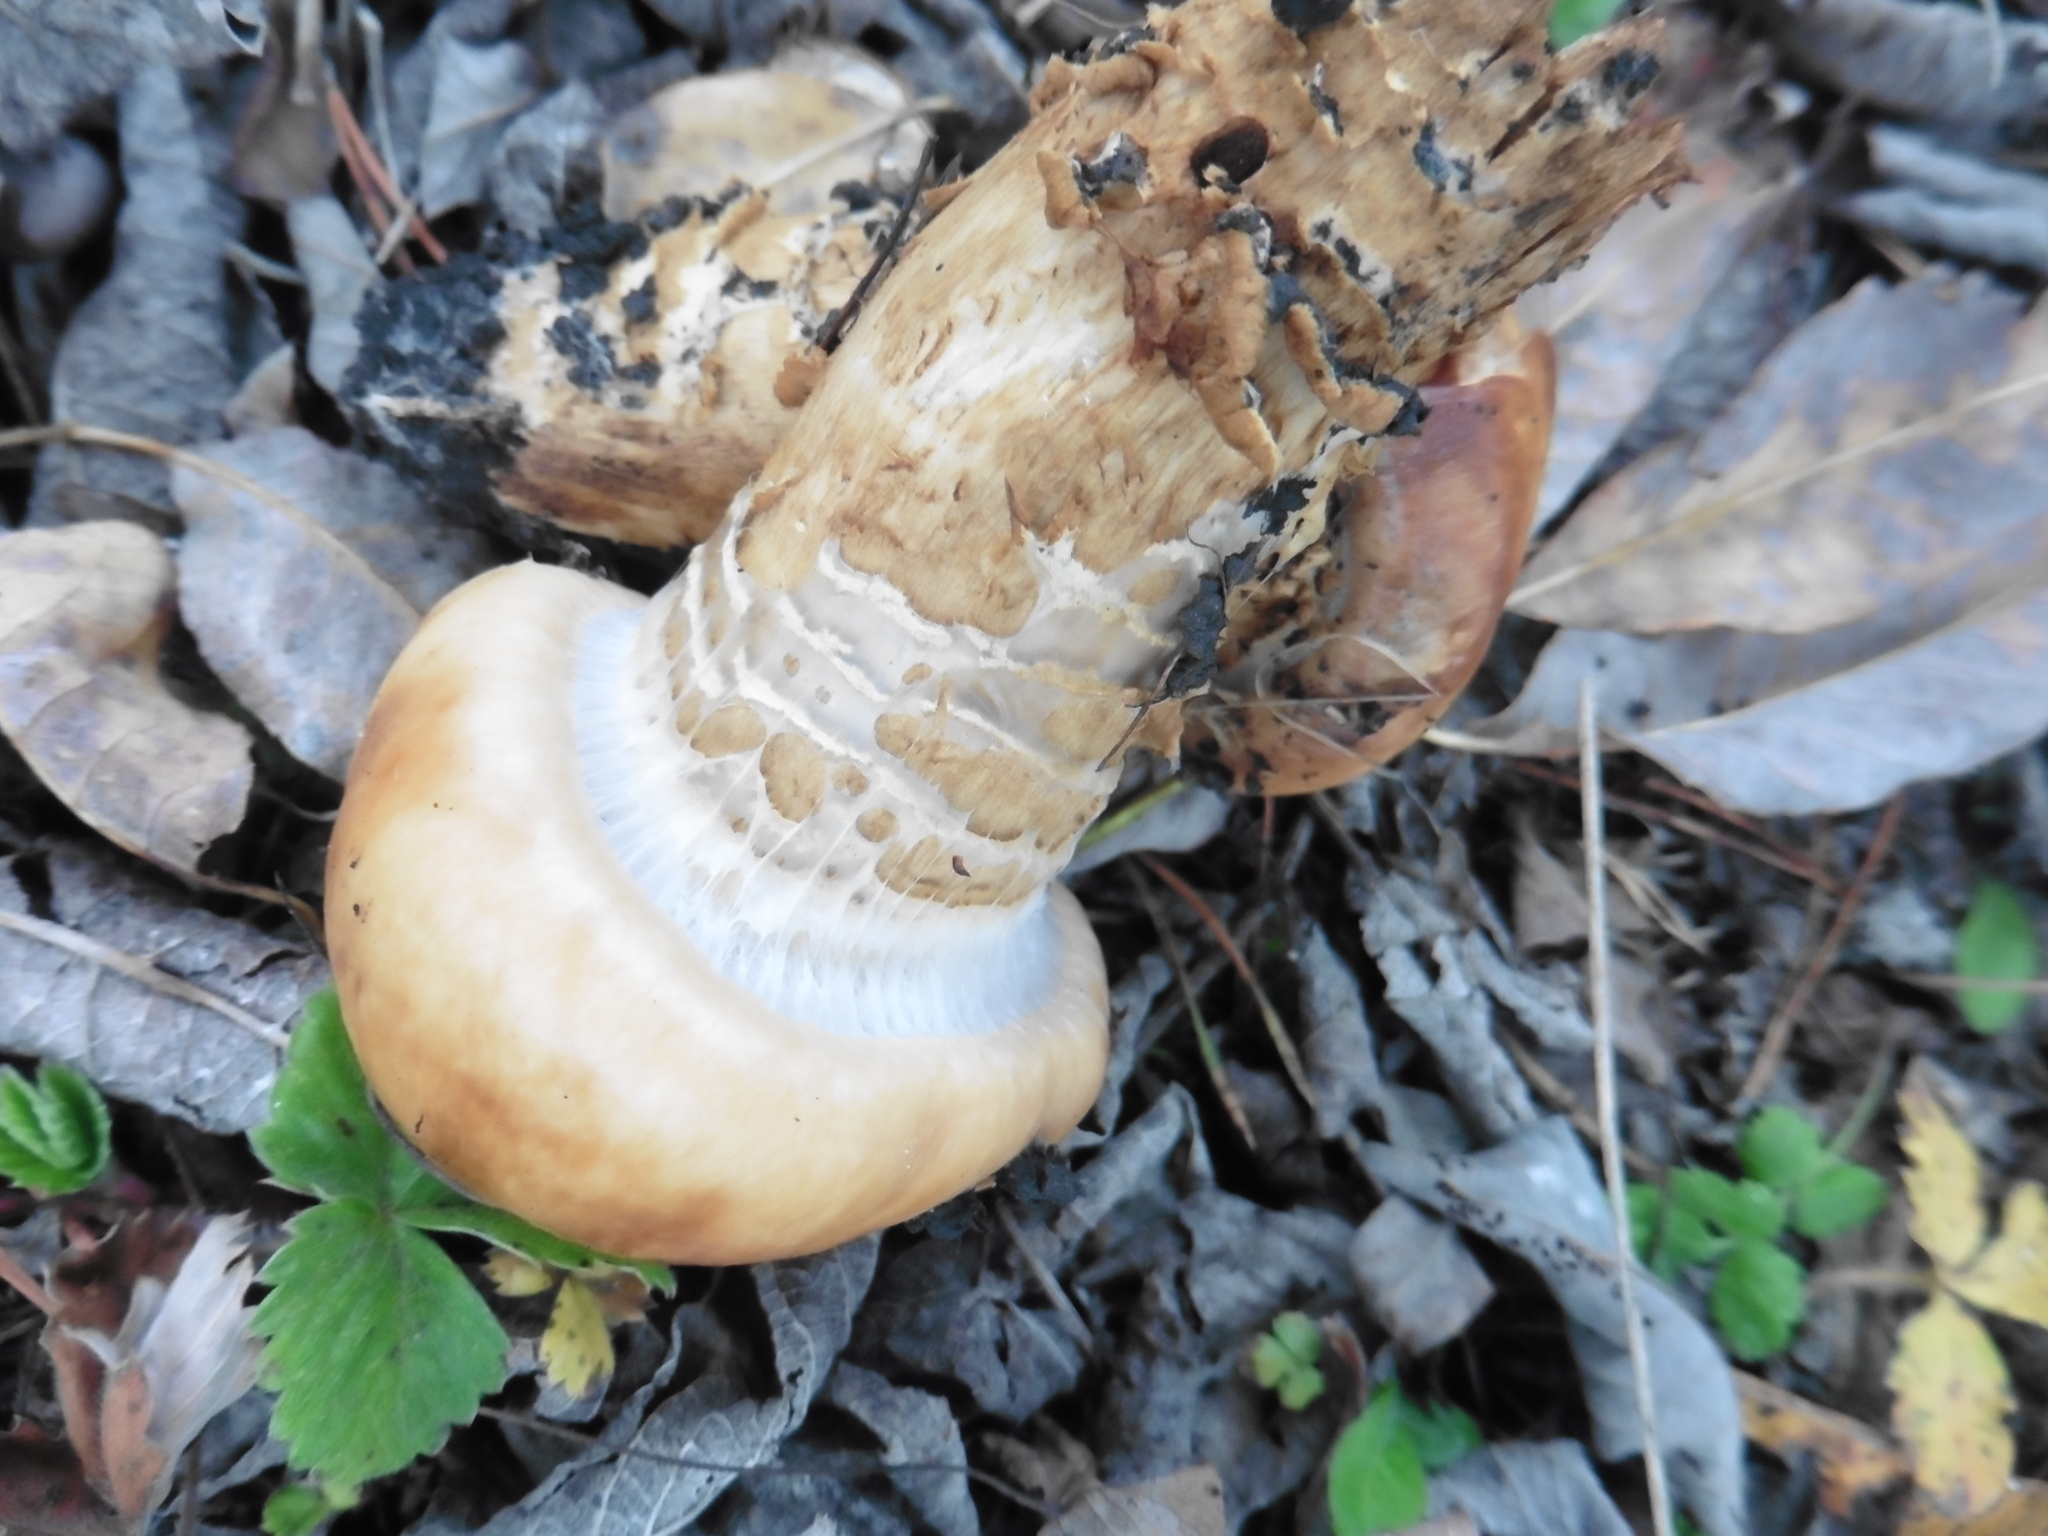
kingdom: Fungi
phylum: Basidiomycota
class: Agaricomycetes
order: Agaricales
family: Cortinariaceae
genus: Cortinarius
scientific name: Cortinarius trivialis
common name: Girdled webcap
